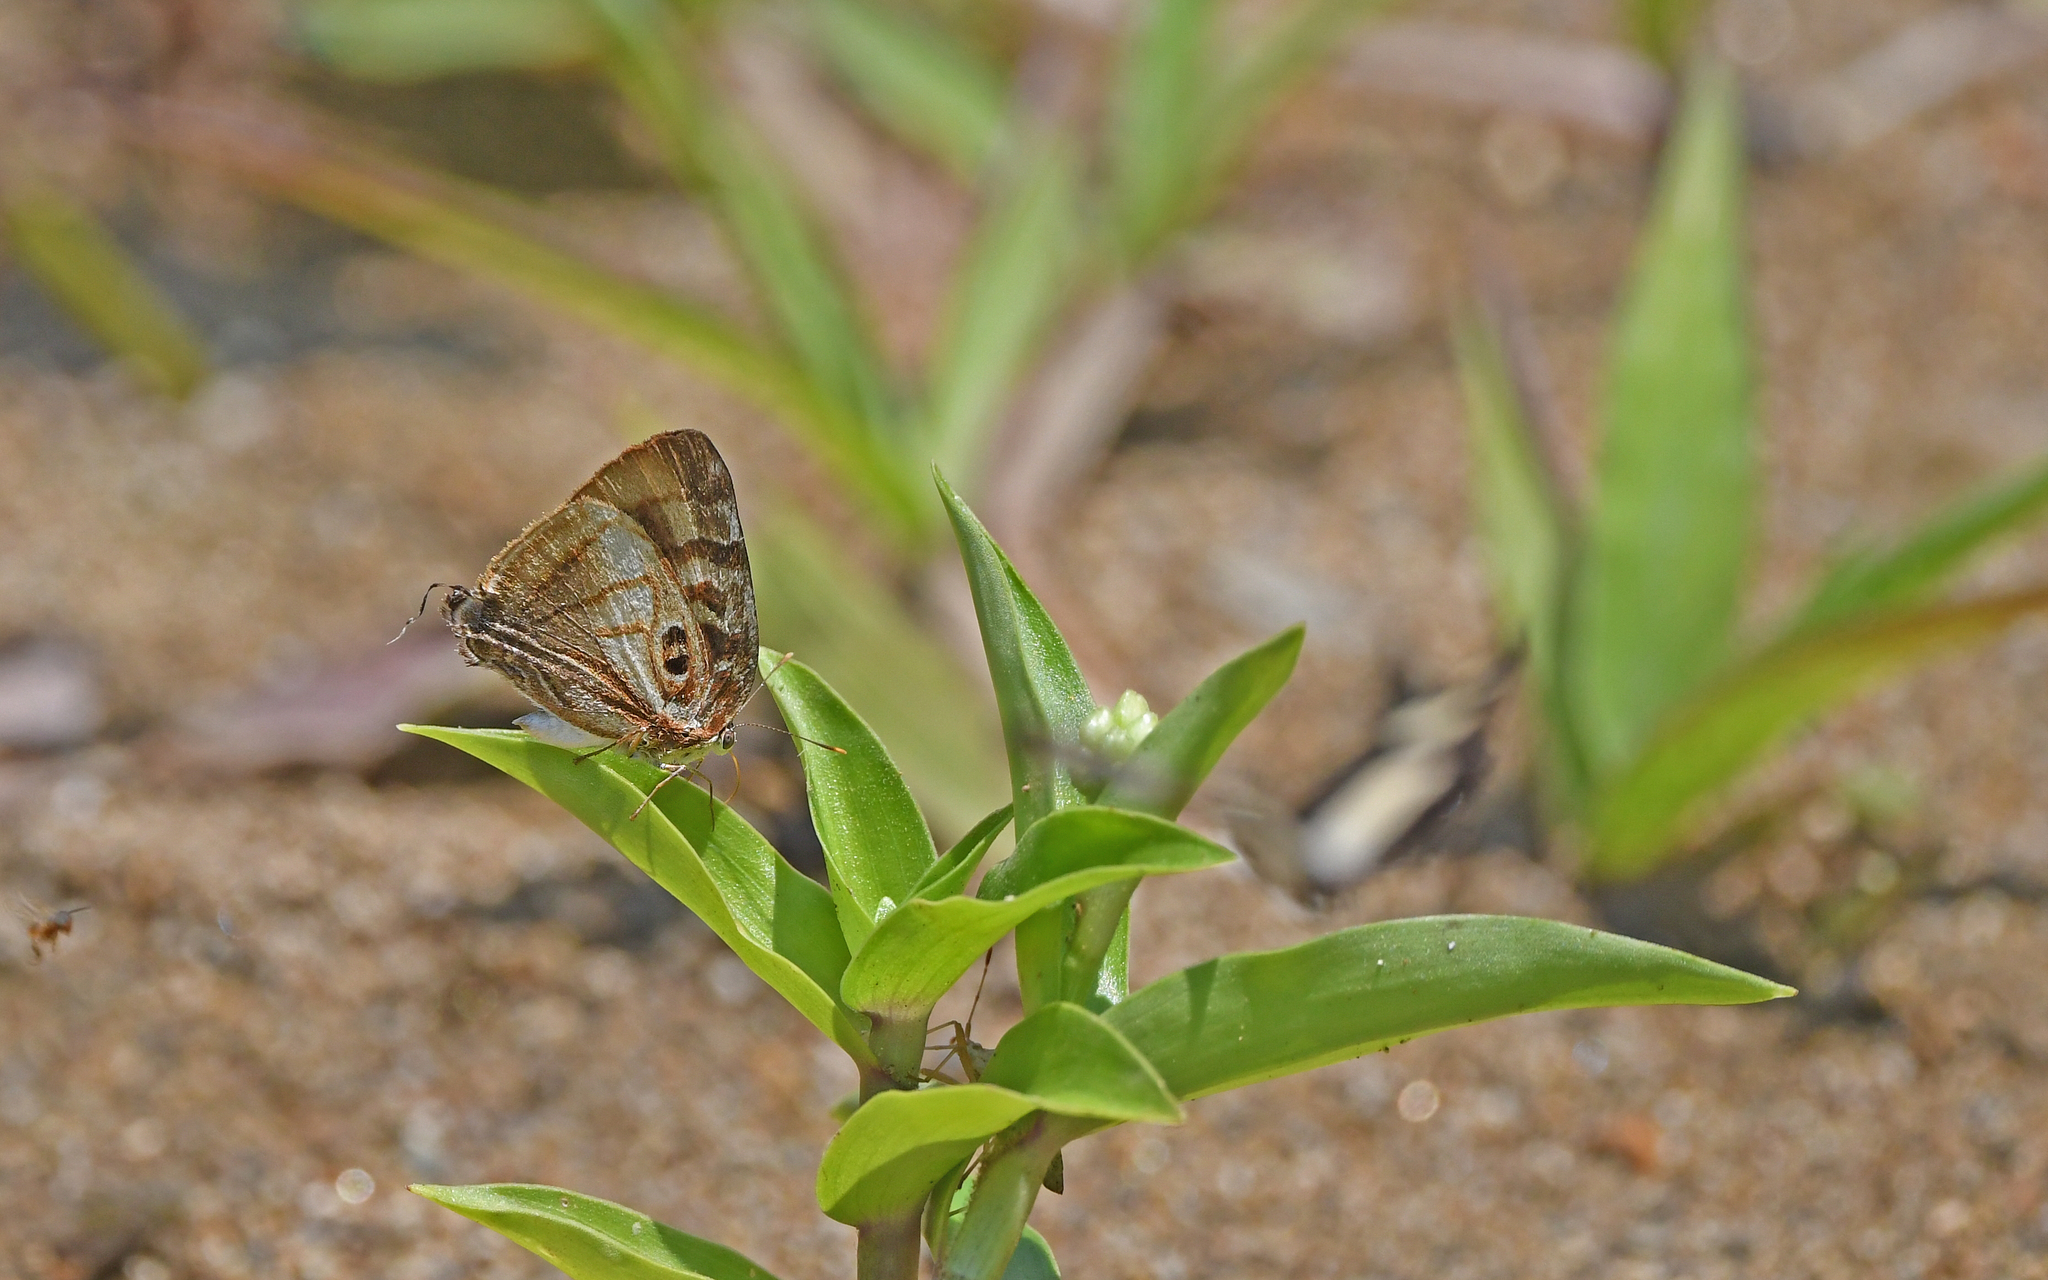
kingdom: Animalia
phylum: Arthropoda
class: Insecta
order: Lepidoptera
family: Lycaenidae
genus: Rekoa
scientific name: Rekoa meton
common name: Meton hairstreak
